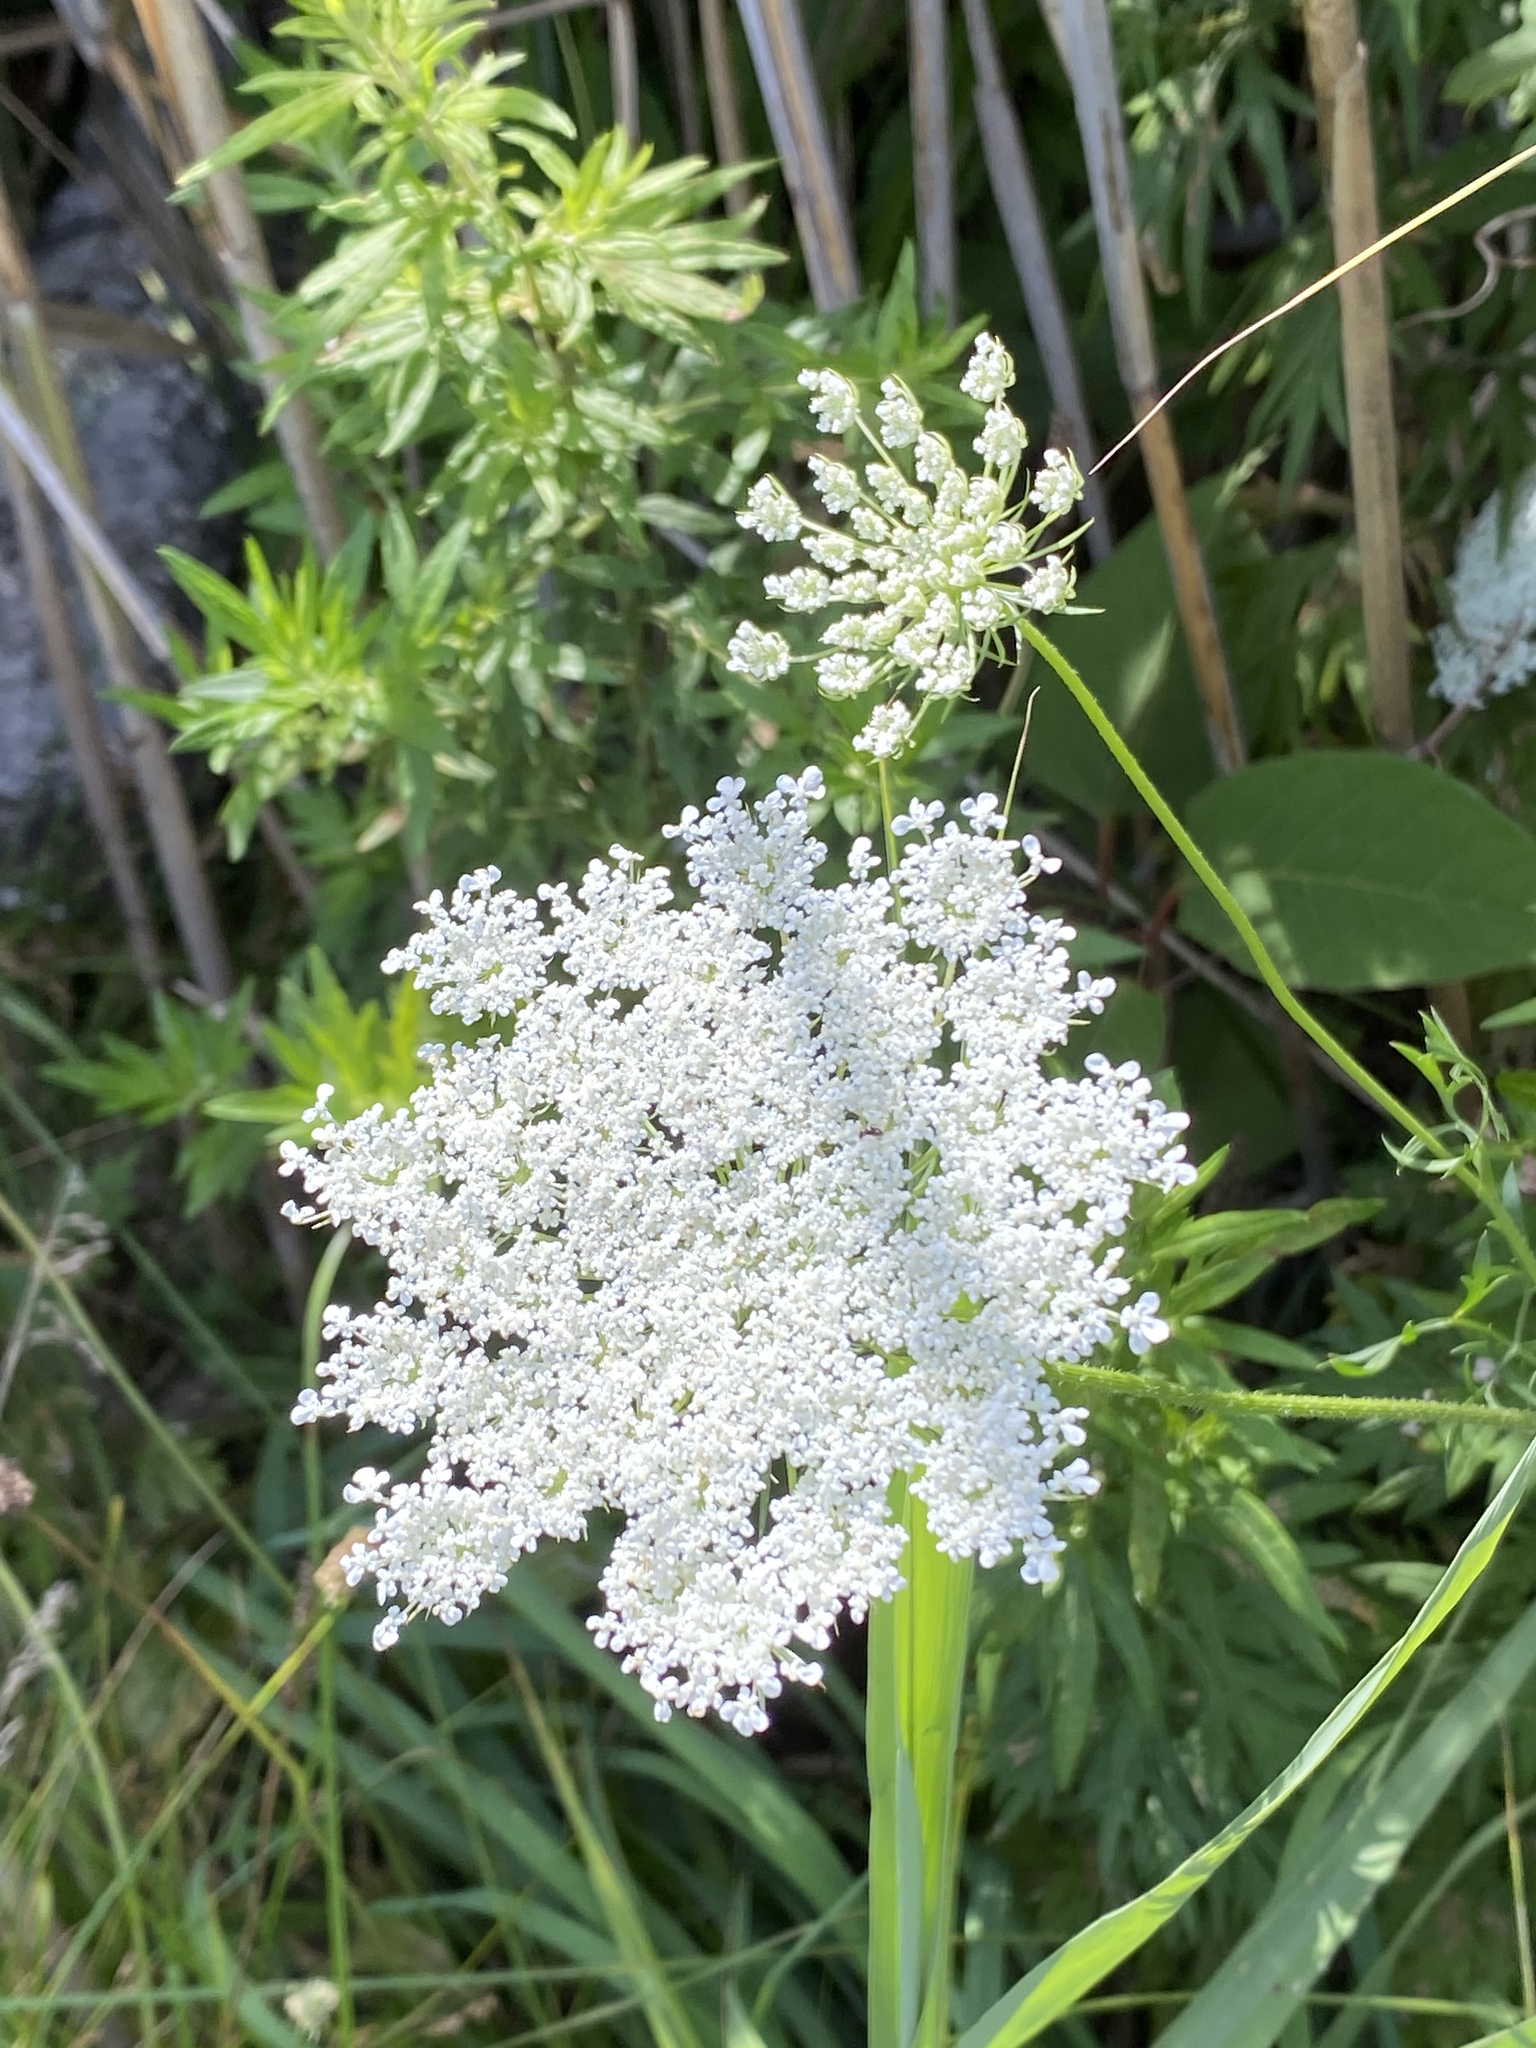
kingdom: Plantae
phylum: Tracheophyta
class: Magnoliopsida
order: Apiales
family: Apiaceae
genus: Daucus
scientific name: Daucus carota
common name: Wild carrot
